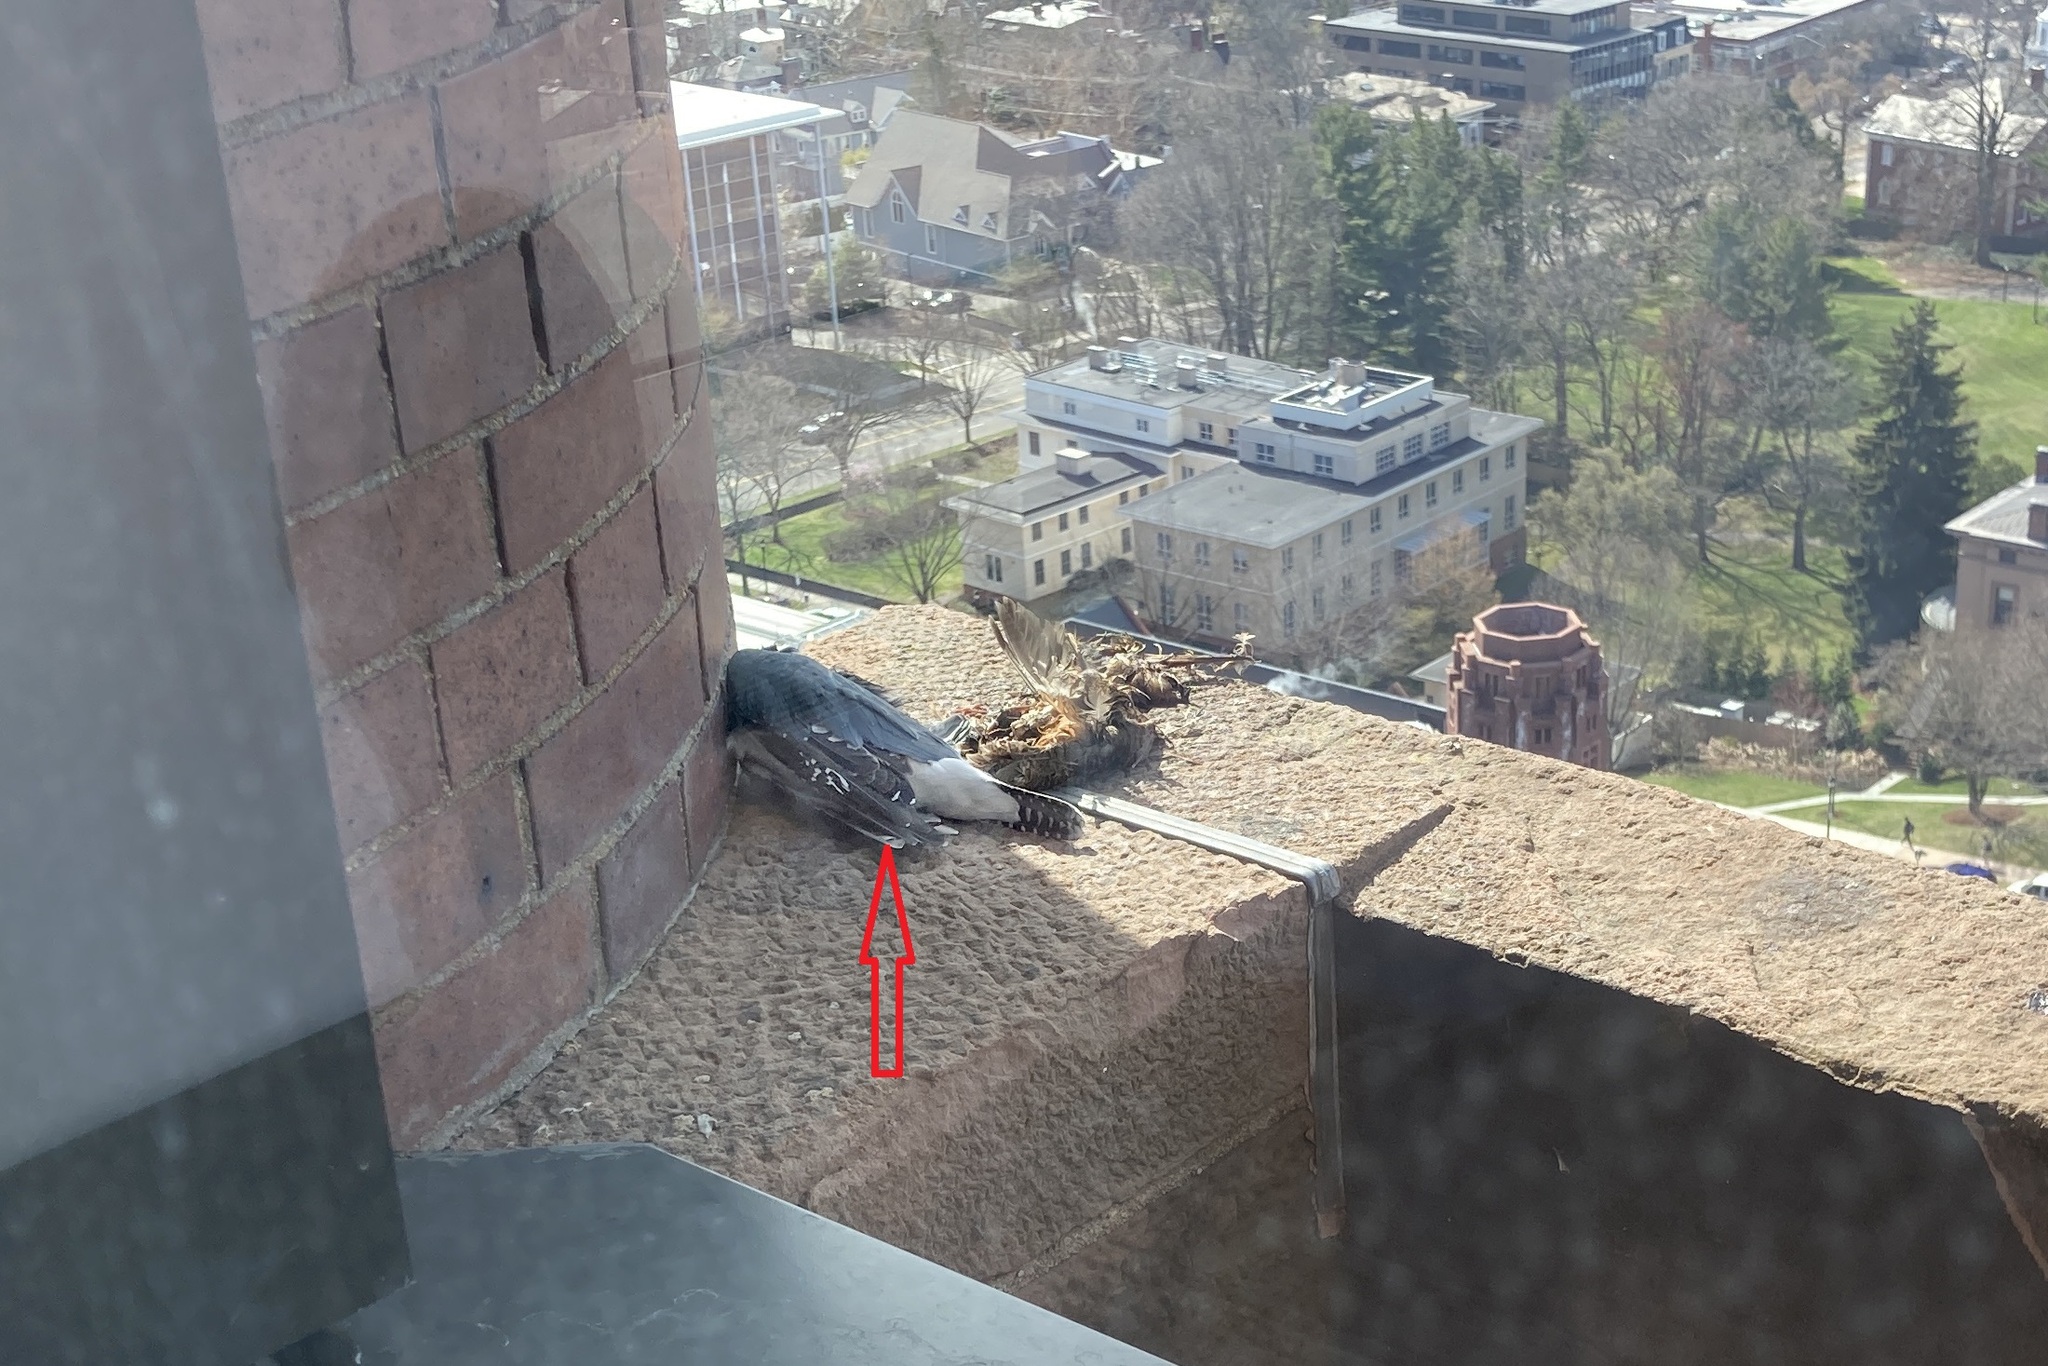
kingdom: Animalia
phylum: Chordata
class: Aves
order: Coraciiformes
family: Alcedinidae
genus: Megaceryle
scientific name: Megaceryle alcyon
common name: Belted kingfisher
